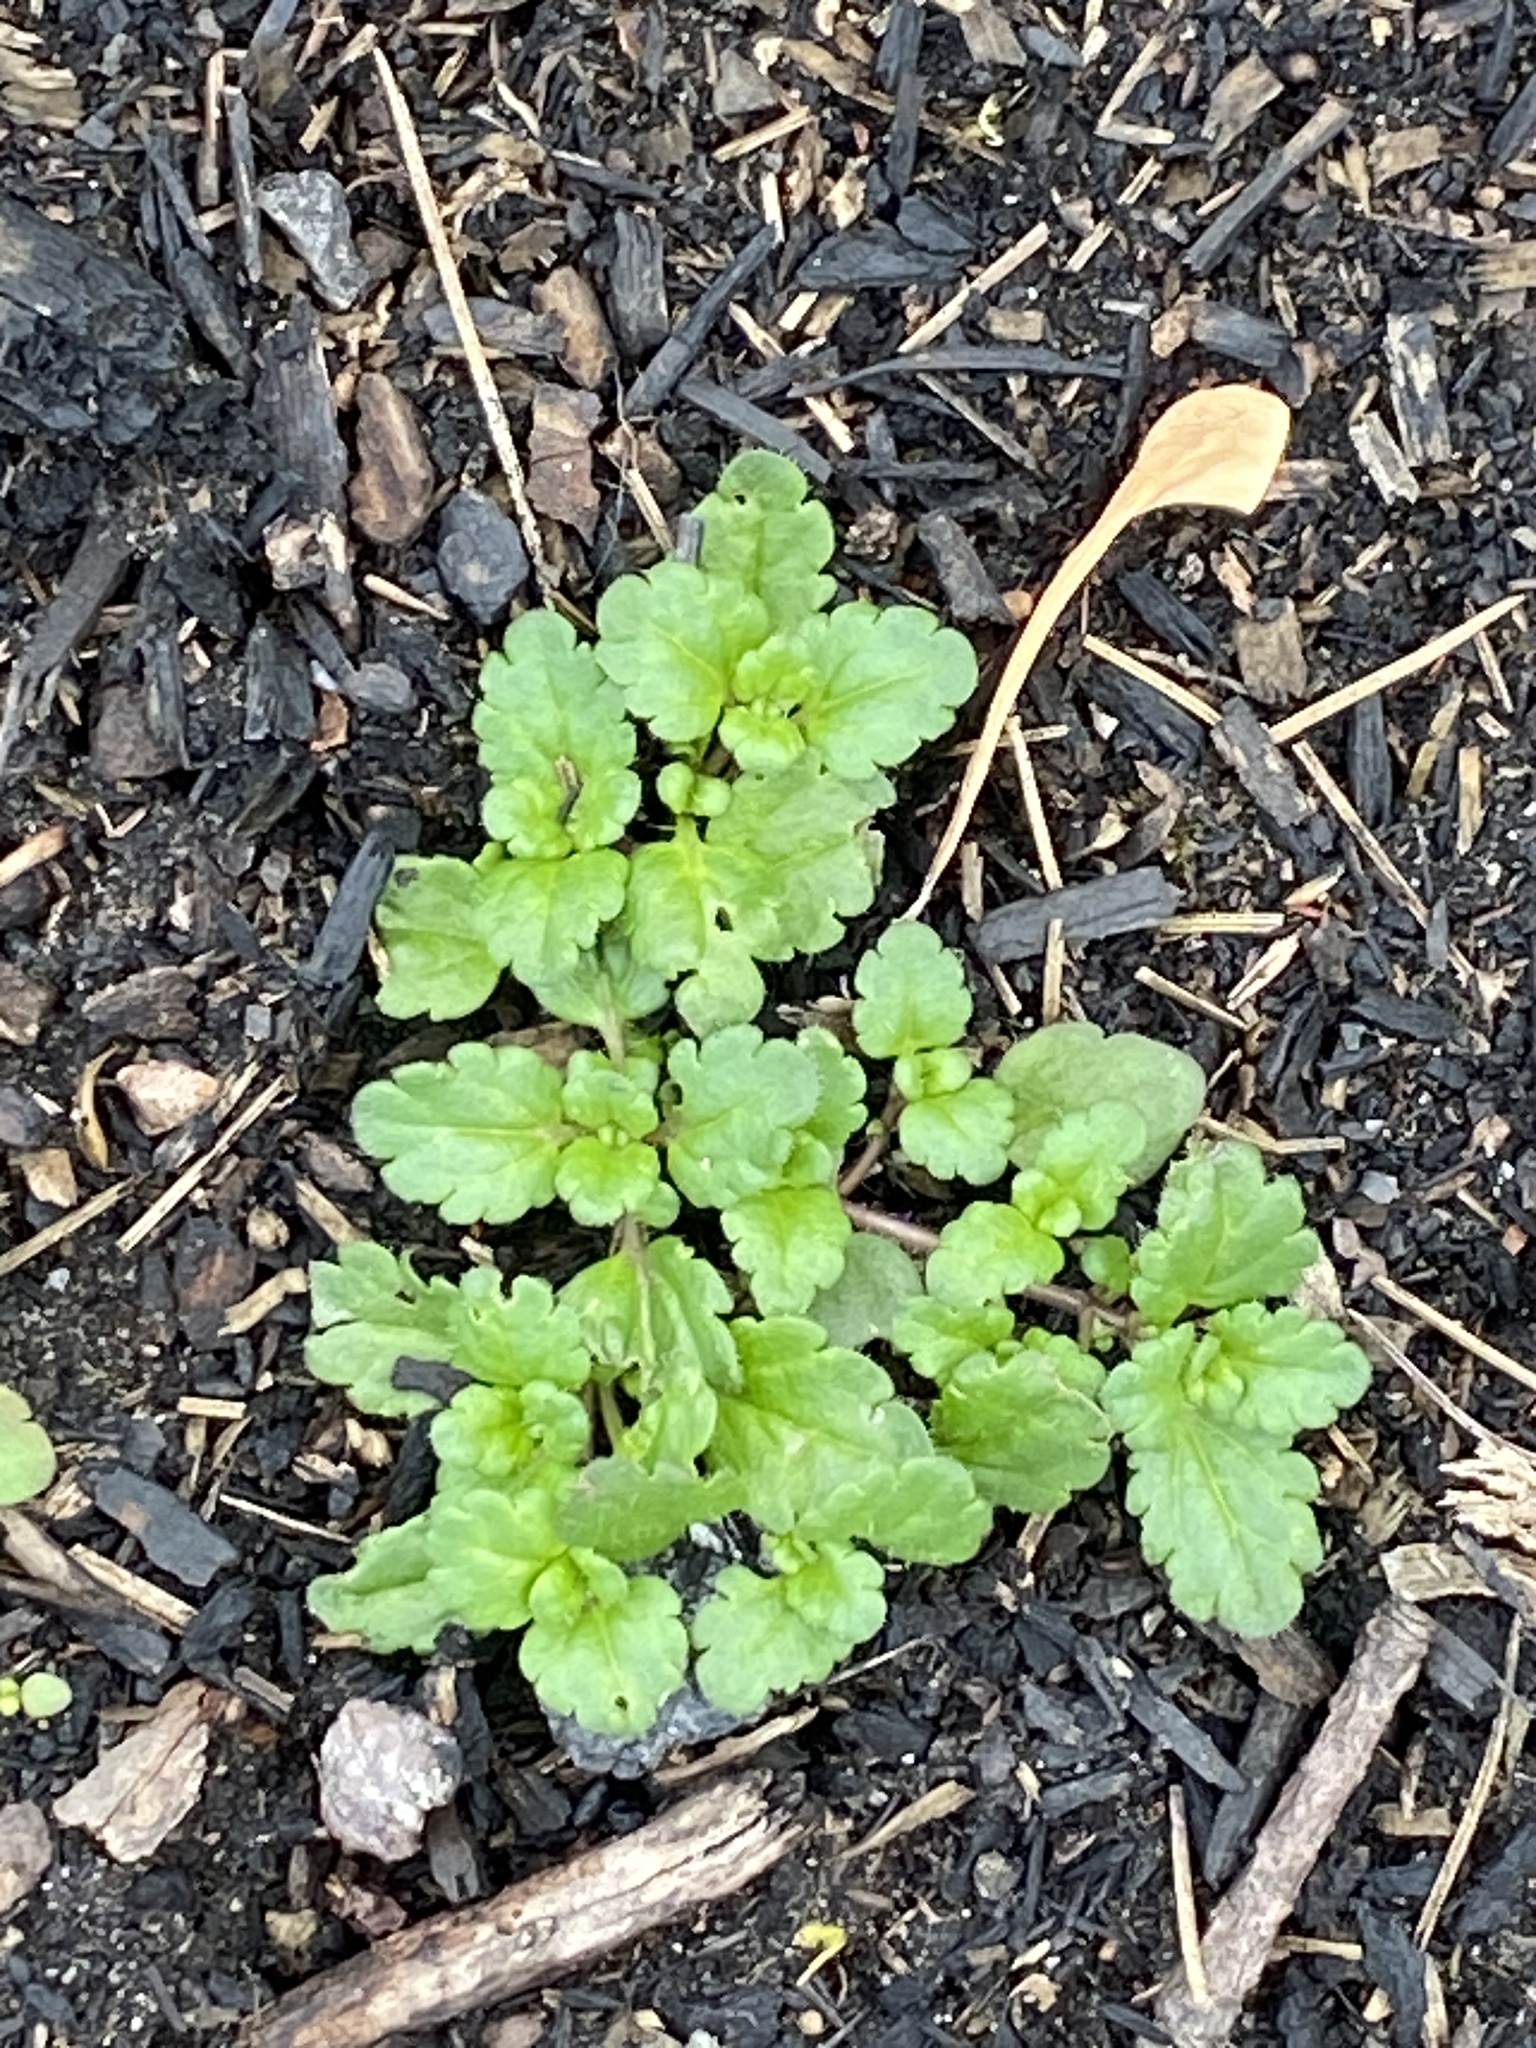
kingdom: Plantae
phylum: Tracheophyta
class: Magnoliopsida
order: Lamiales
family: Plantaginaceae
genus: Veronica
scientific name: Veronica persica
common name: Common field-speedwell
